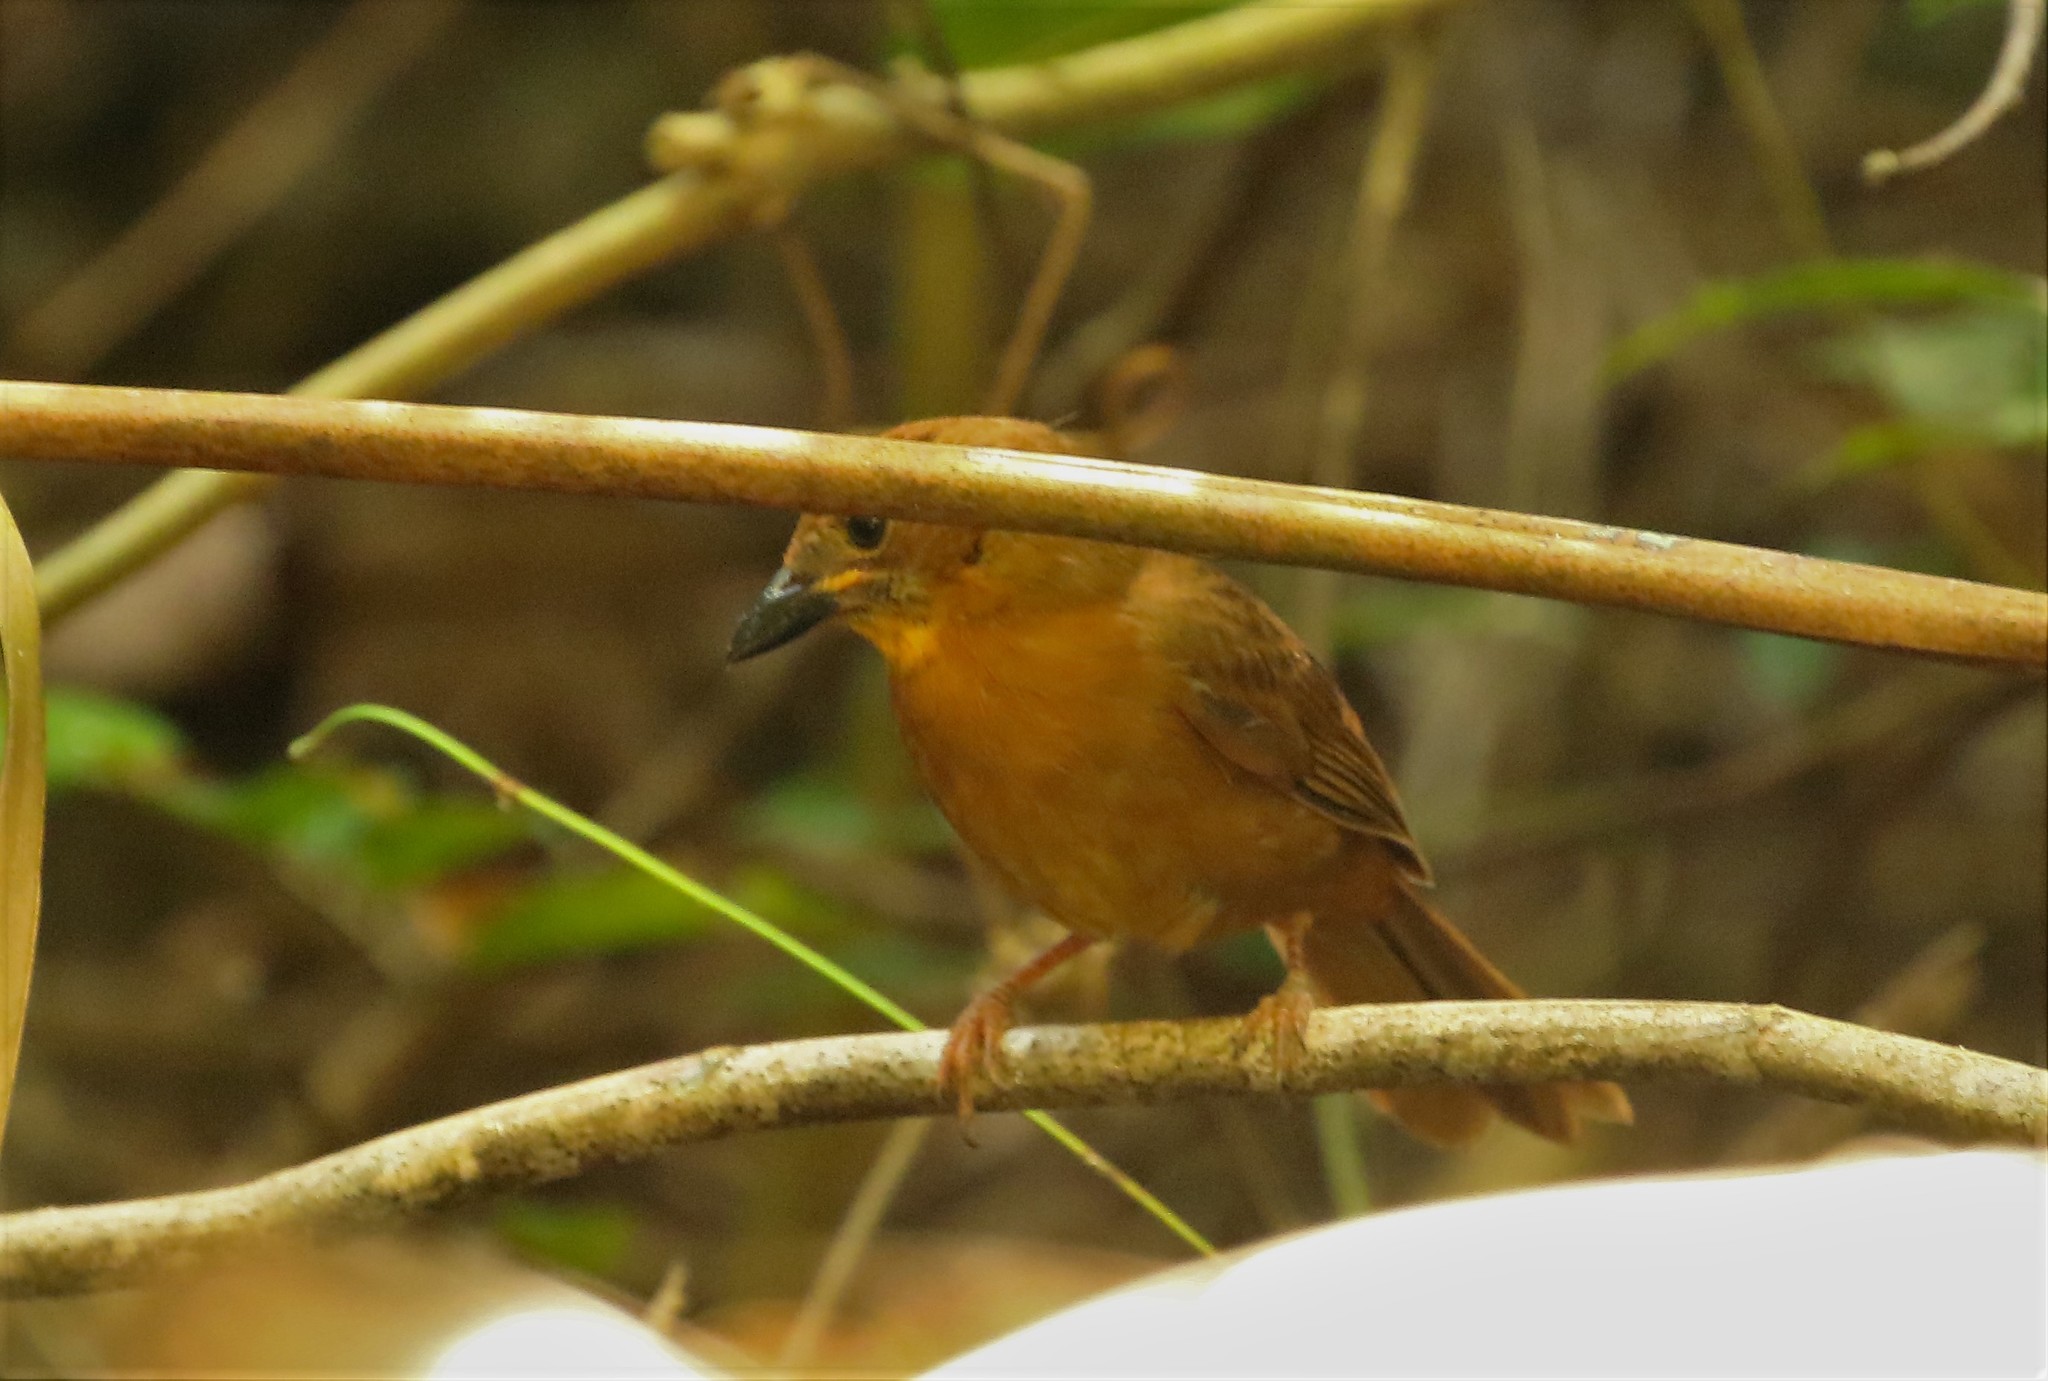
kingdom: Animalia
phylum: Chordata
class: Aves
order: Passeriformes
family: Cardinalidae
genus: Habia
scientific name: Habia fuscicauda
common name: Red-throated ant-tanager
